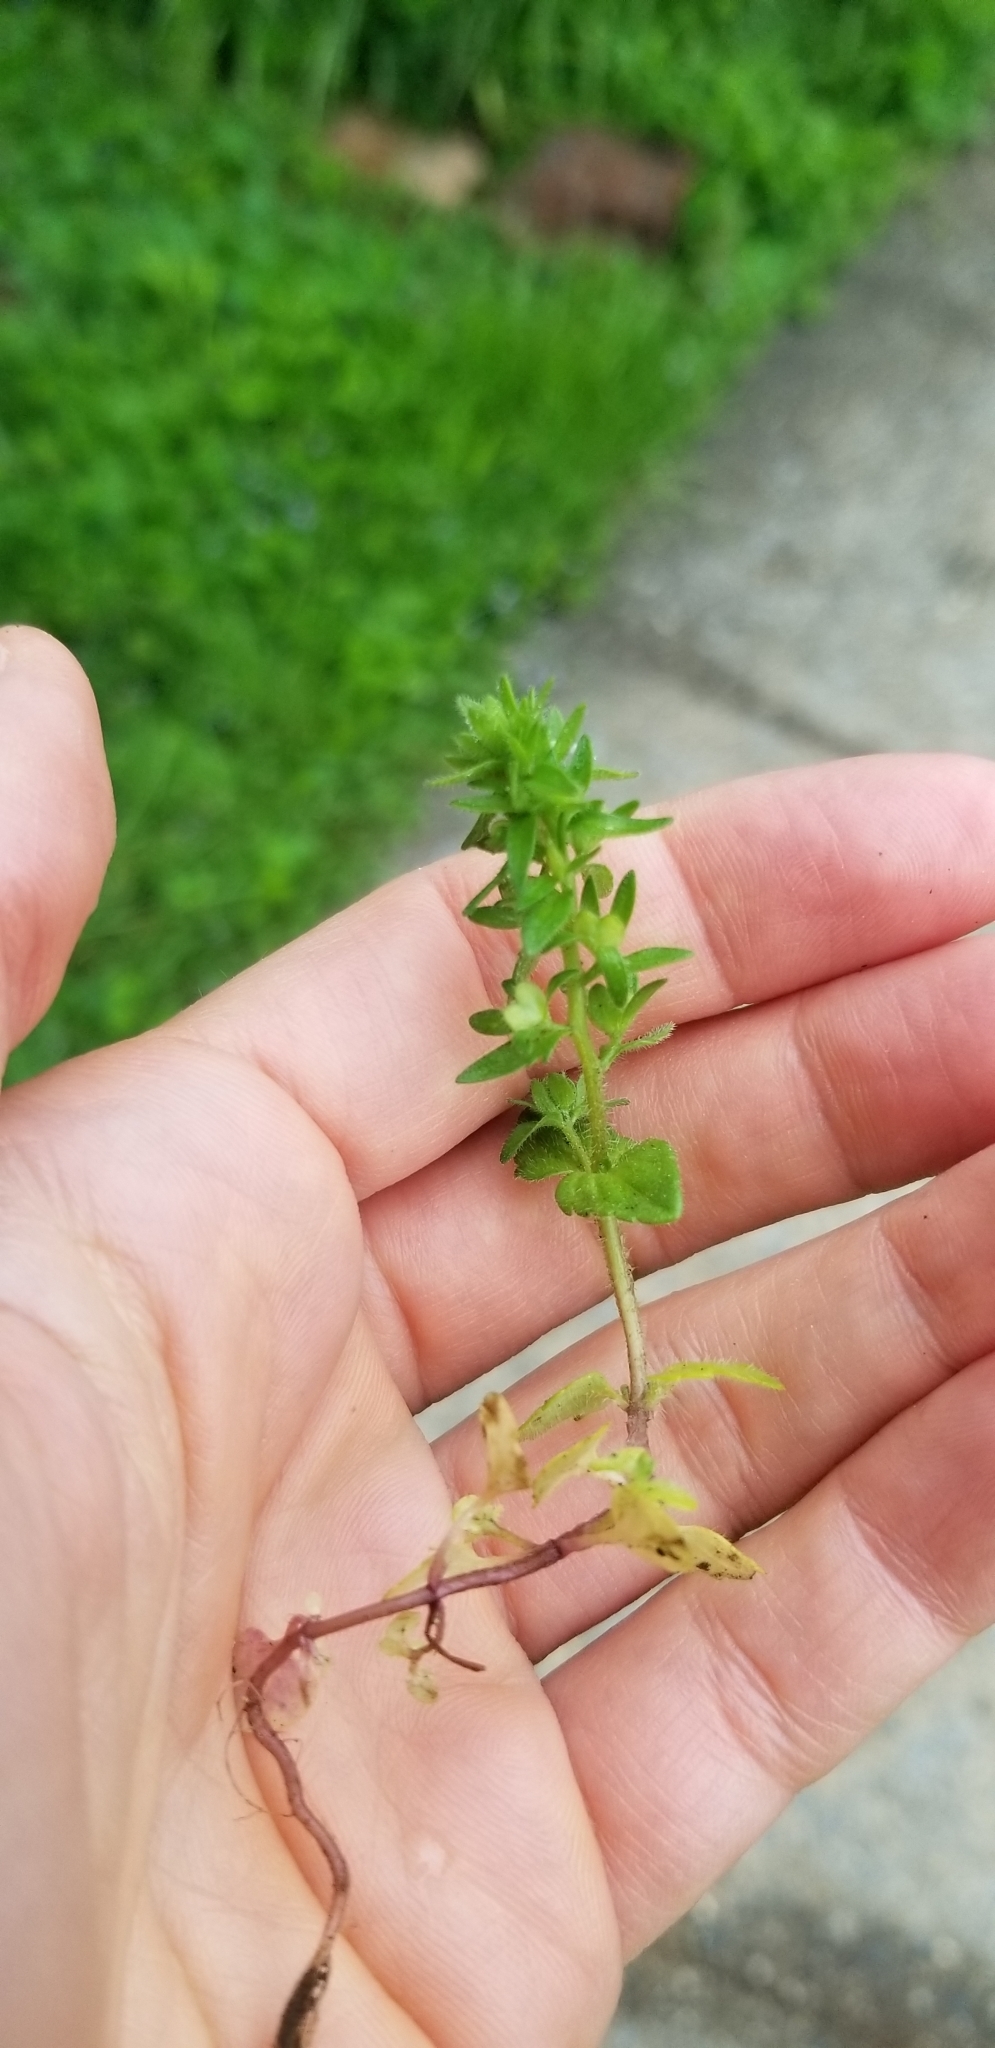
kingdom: Plantae
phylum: Tracheophyta
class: Magnoliopsida
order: Lamiales
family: Plantaginaceae
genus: Veronica
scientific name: Veronica arvensis
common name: Corn speedwell
